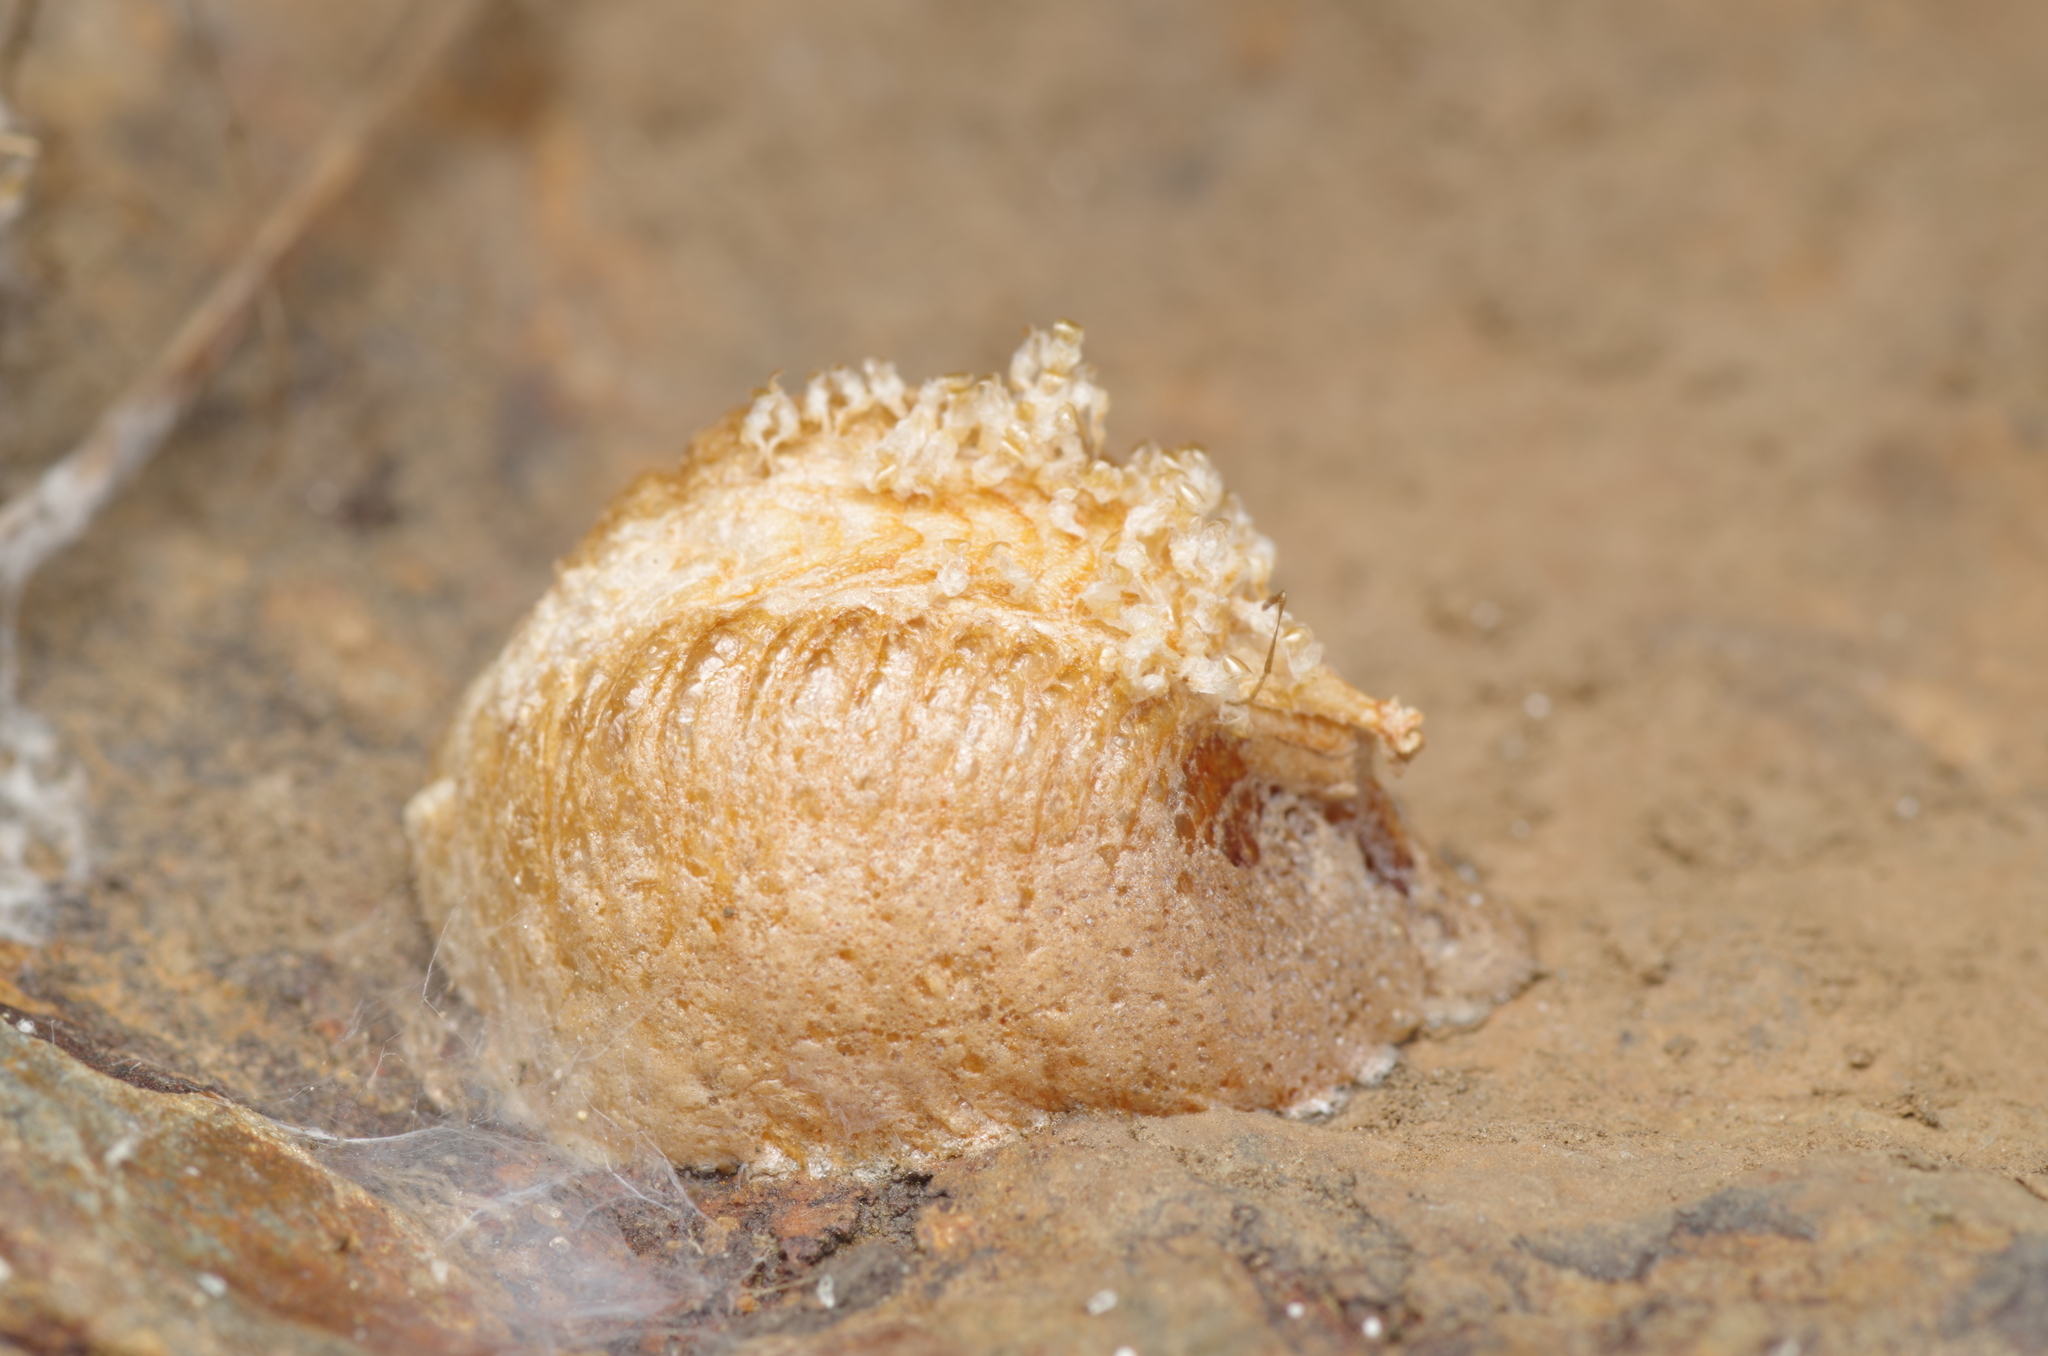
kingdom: Animalia
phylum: Arthropoda
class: Insecta
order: Mantodea
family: Mantidae
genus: Mantis
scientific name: Mantis religiosa
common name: Praying mantis
